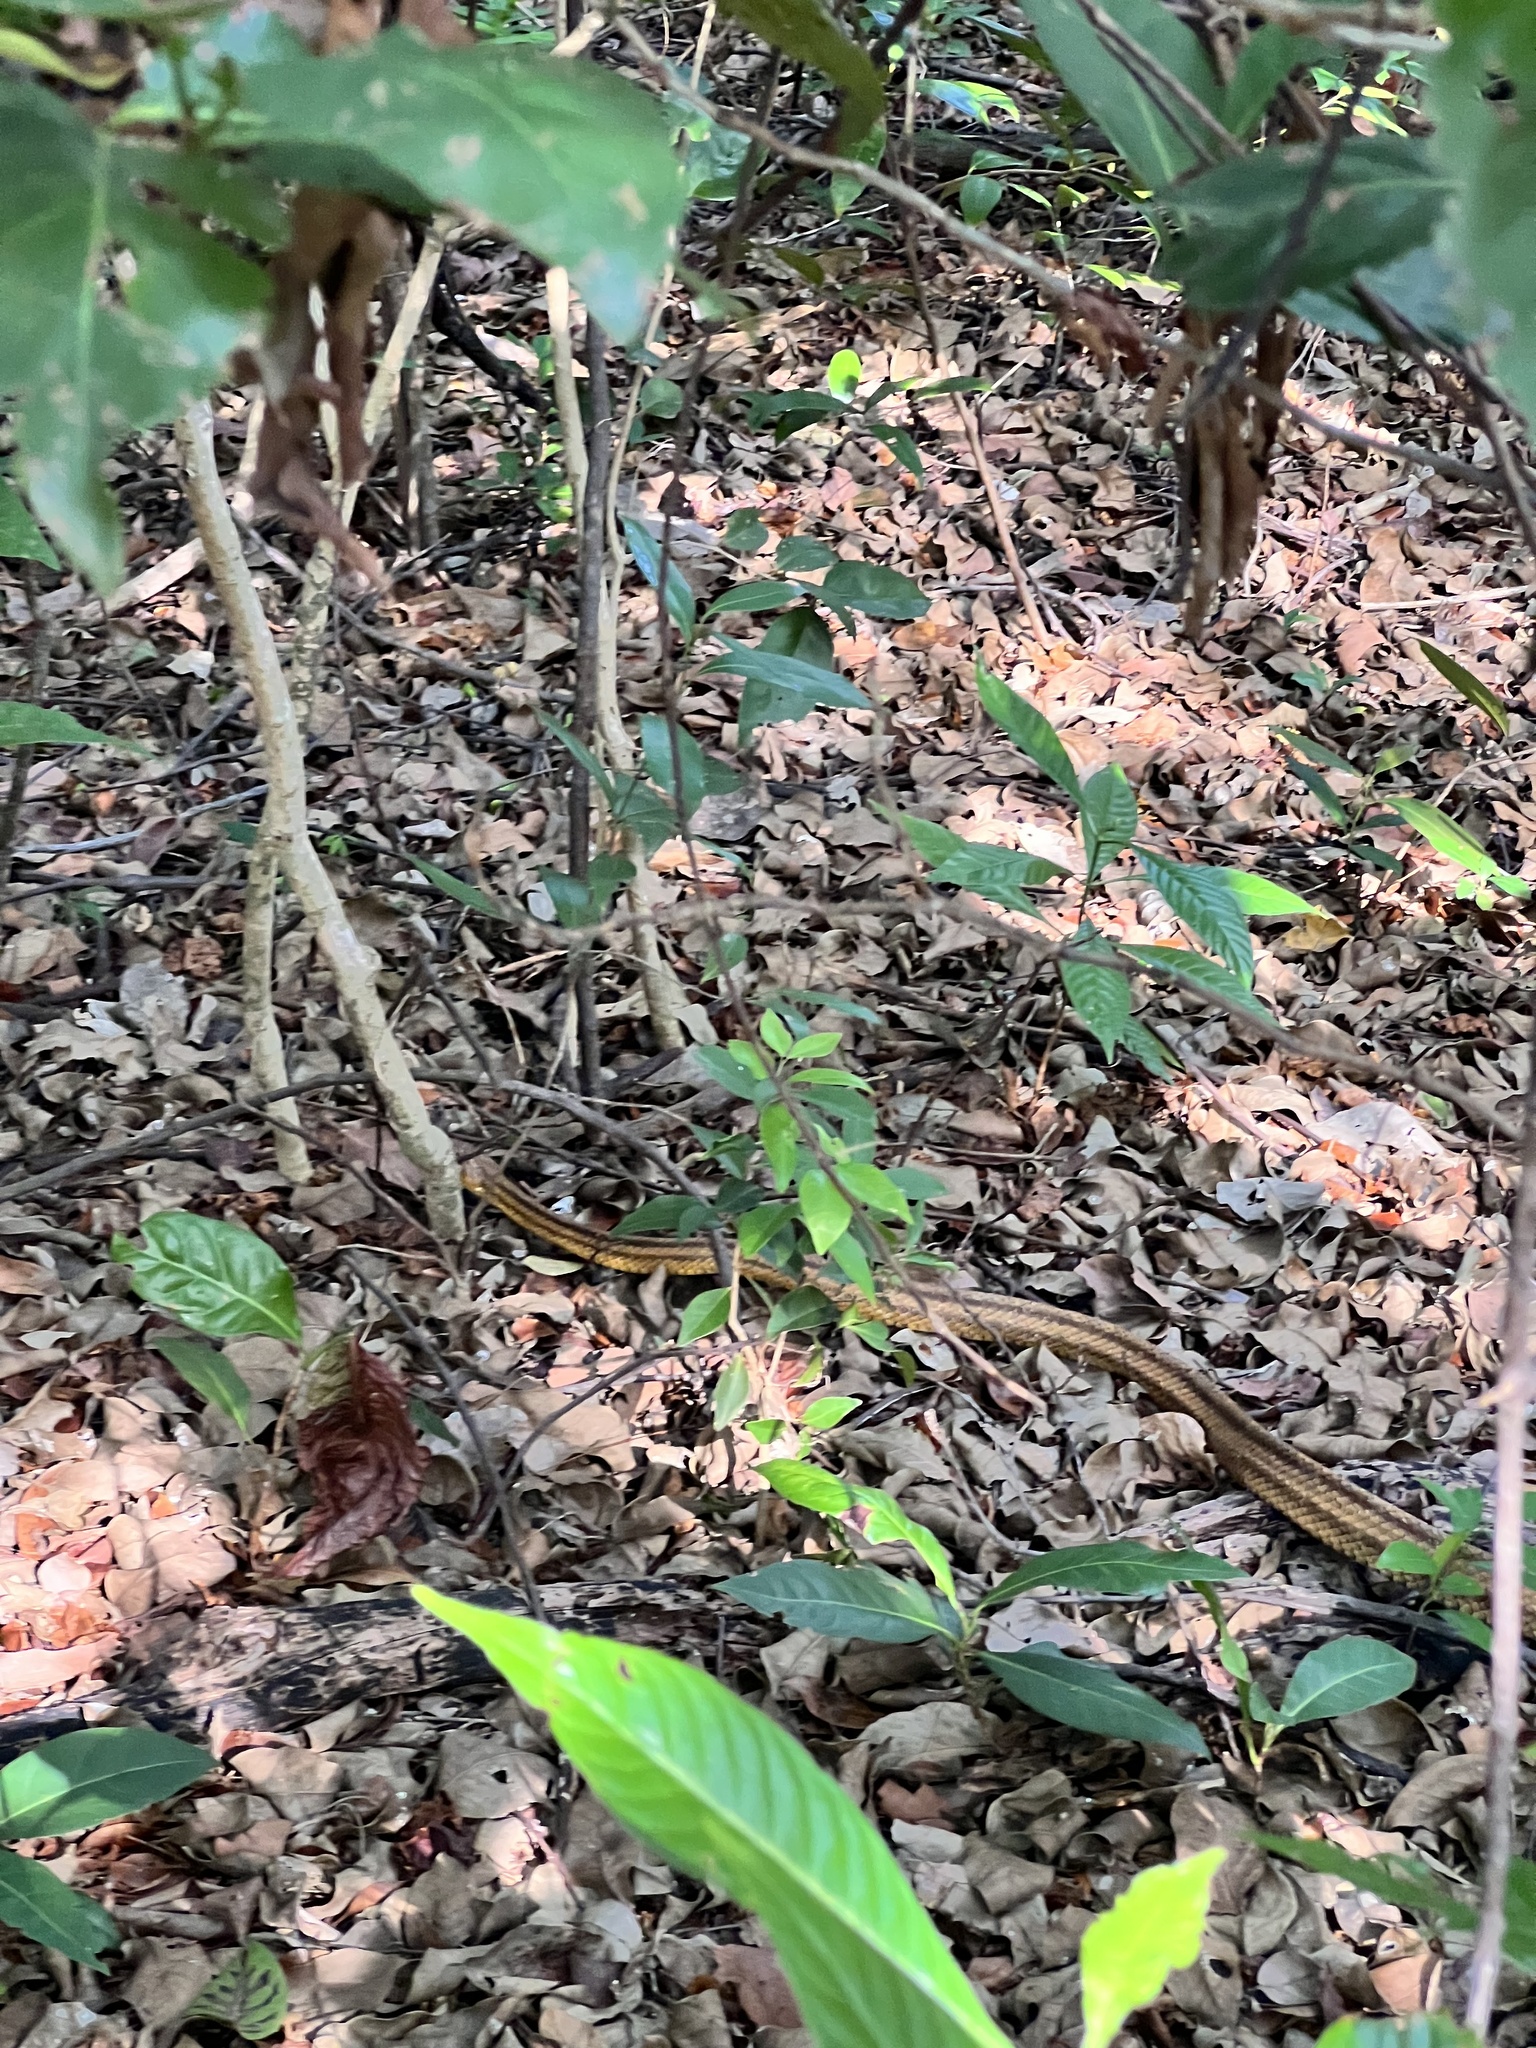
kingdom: Animalia
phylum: Chordata
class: Squamata
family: Colubridae
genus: Pantherophis
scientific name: Pantherophis alleghaniensis
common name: Eastern rat snake
